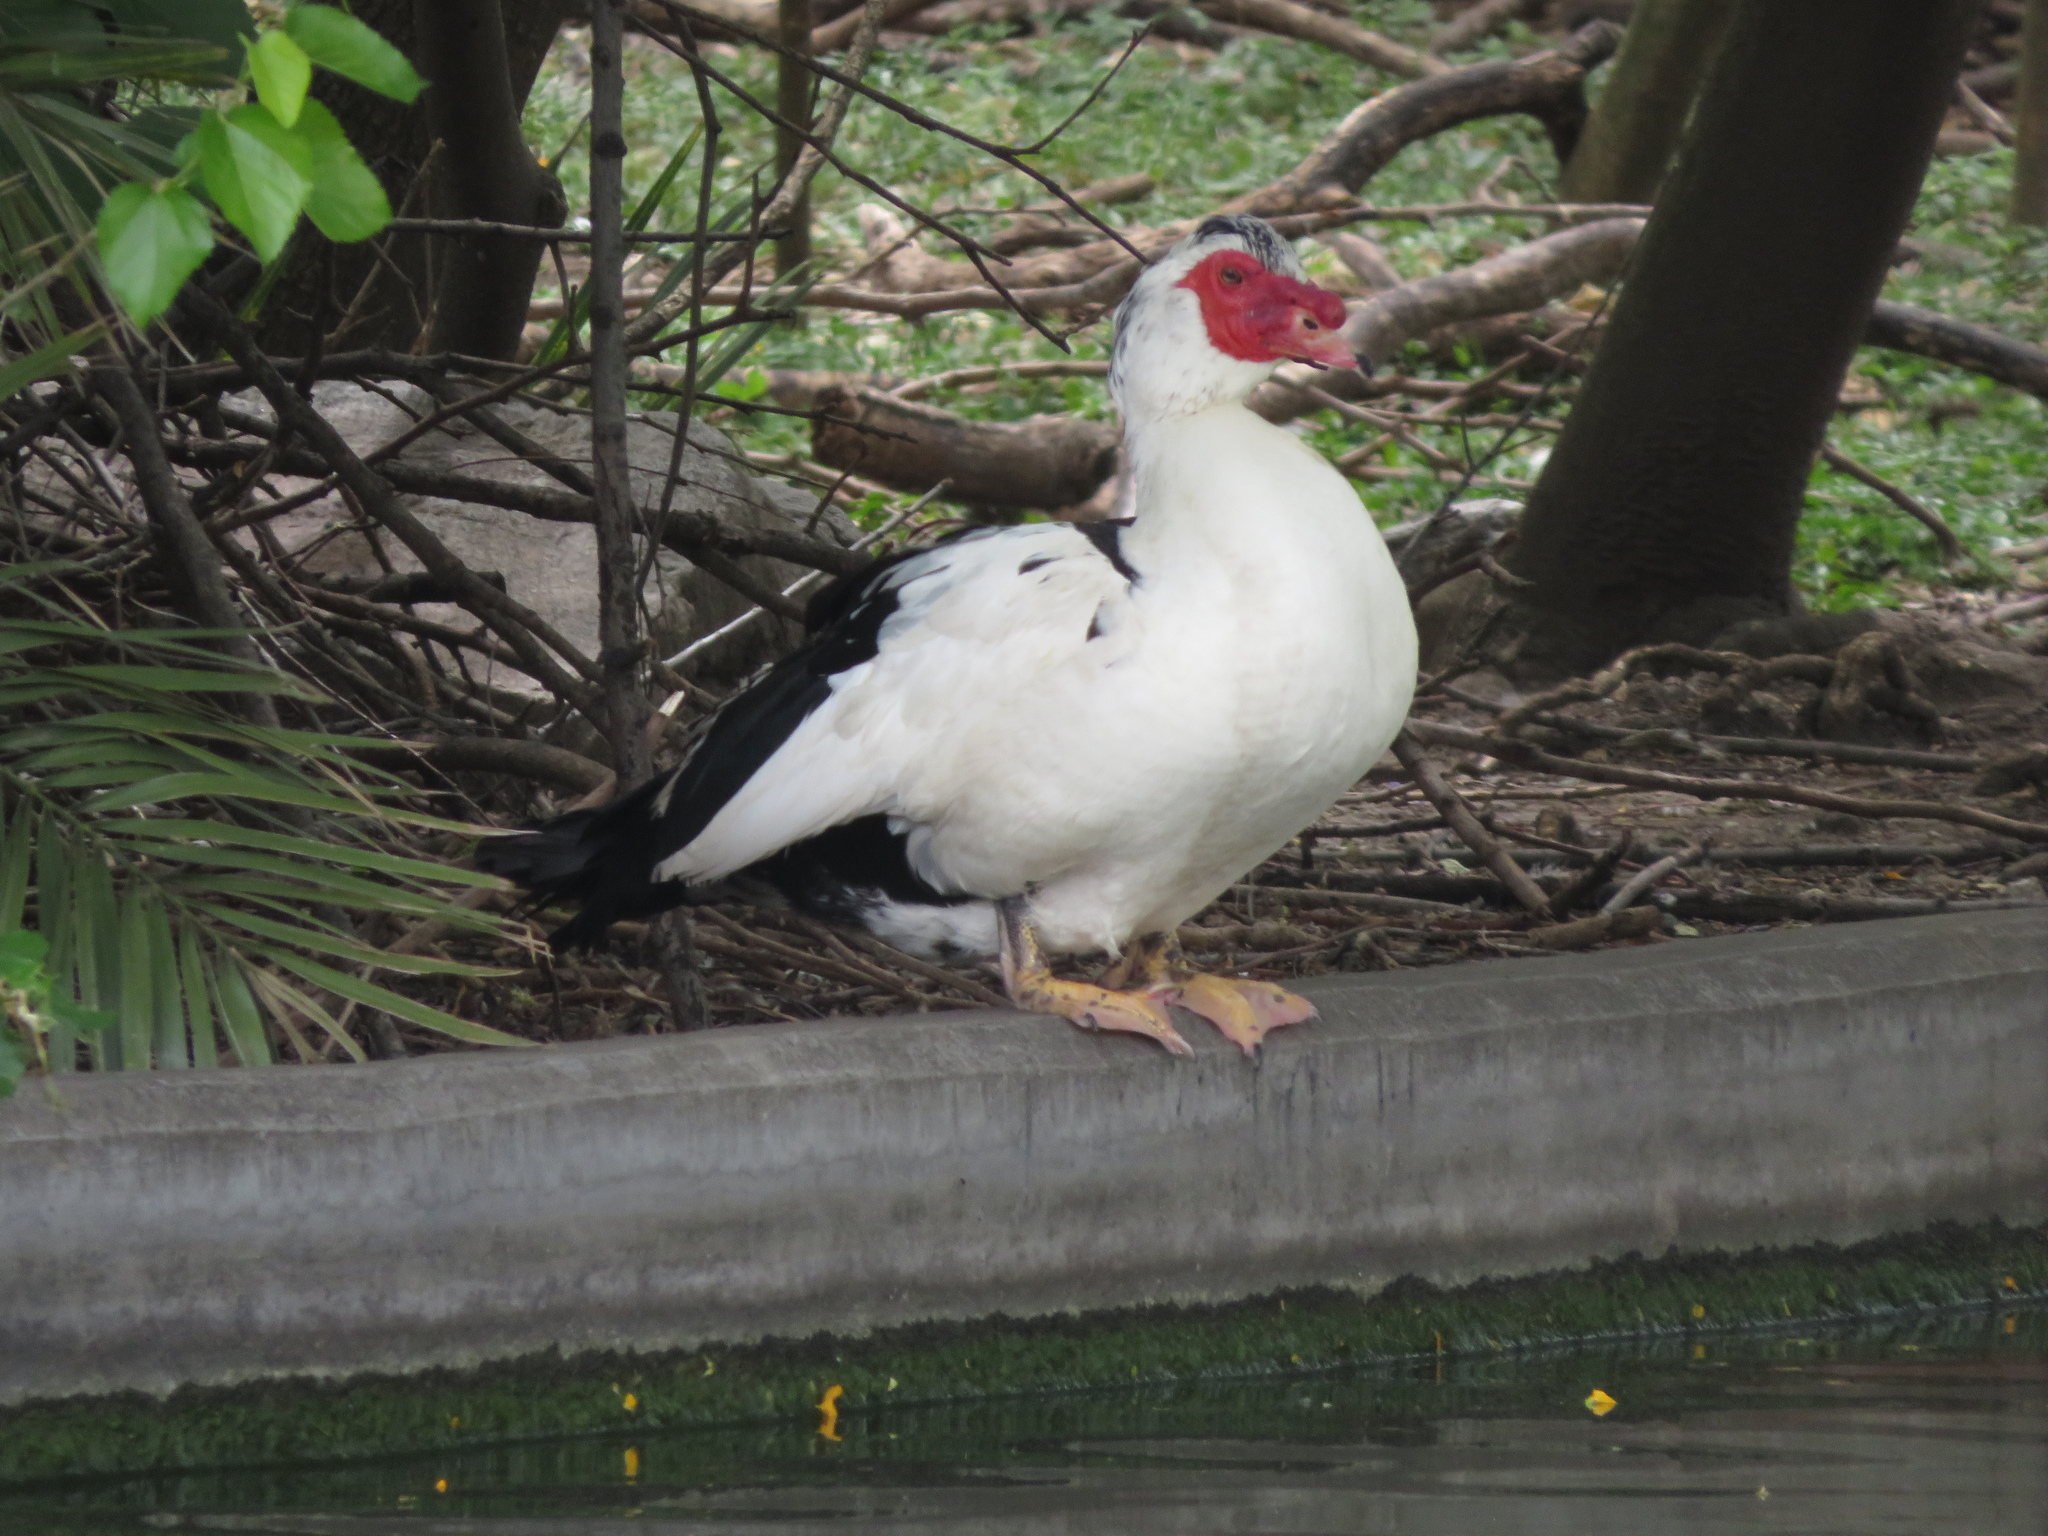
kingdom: Animalia
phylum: Chordata
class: Aves
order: Anseriformes
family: Anatidae
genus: Cairina
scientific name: Cairina moschata
